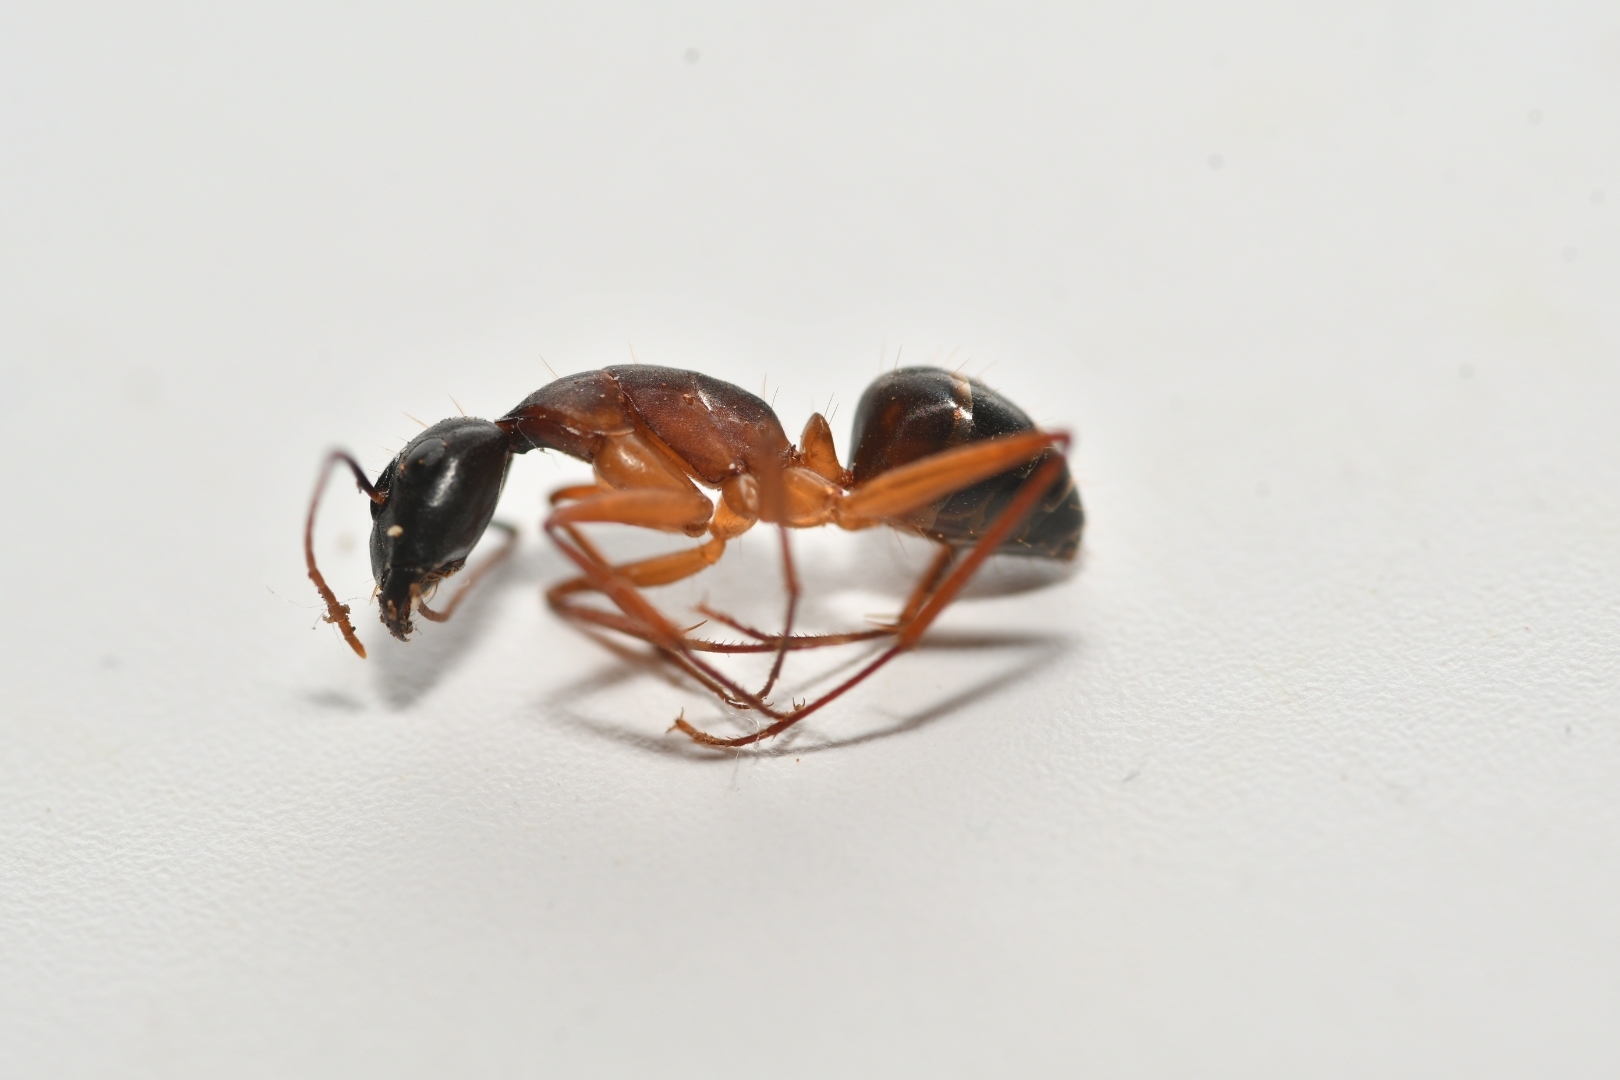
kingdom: Animalia
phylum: Arthropoda
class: Insecta
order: Hymenoptera
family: Formicidae
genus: Camponotus
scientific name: Camponotus hesperius
